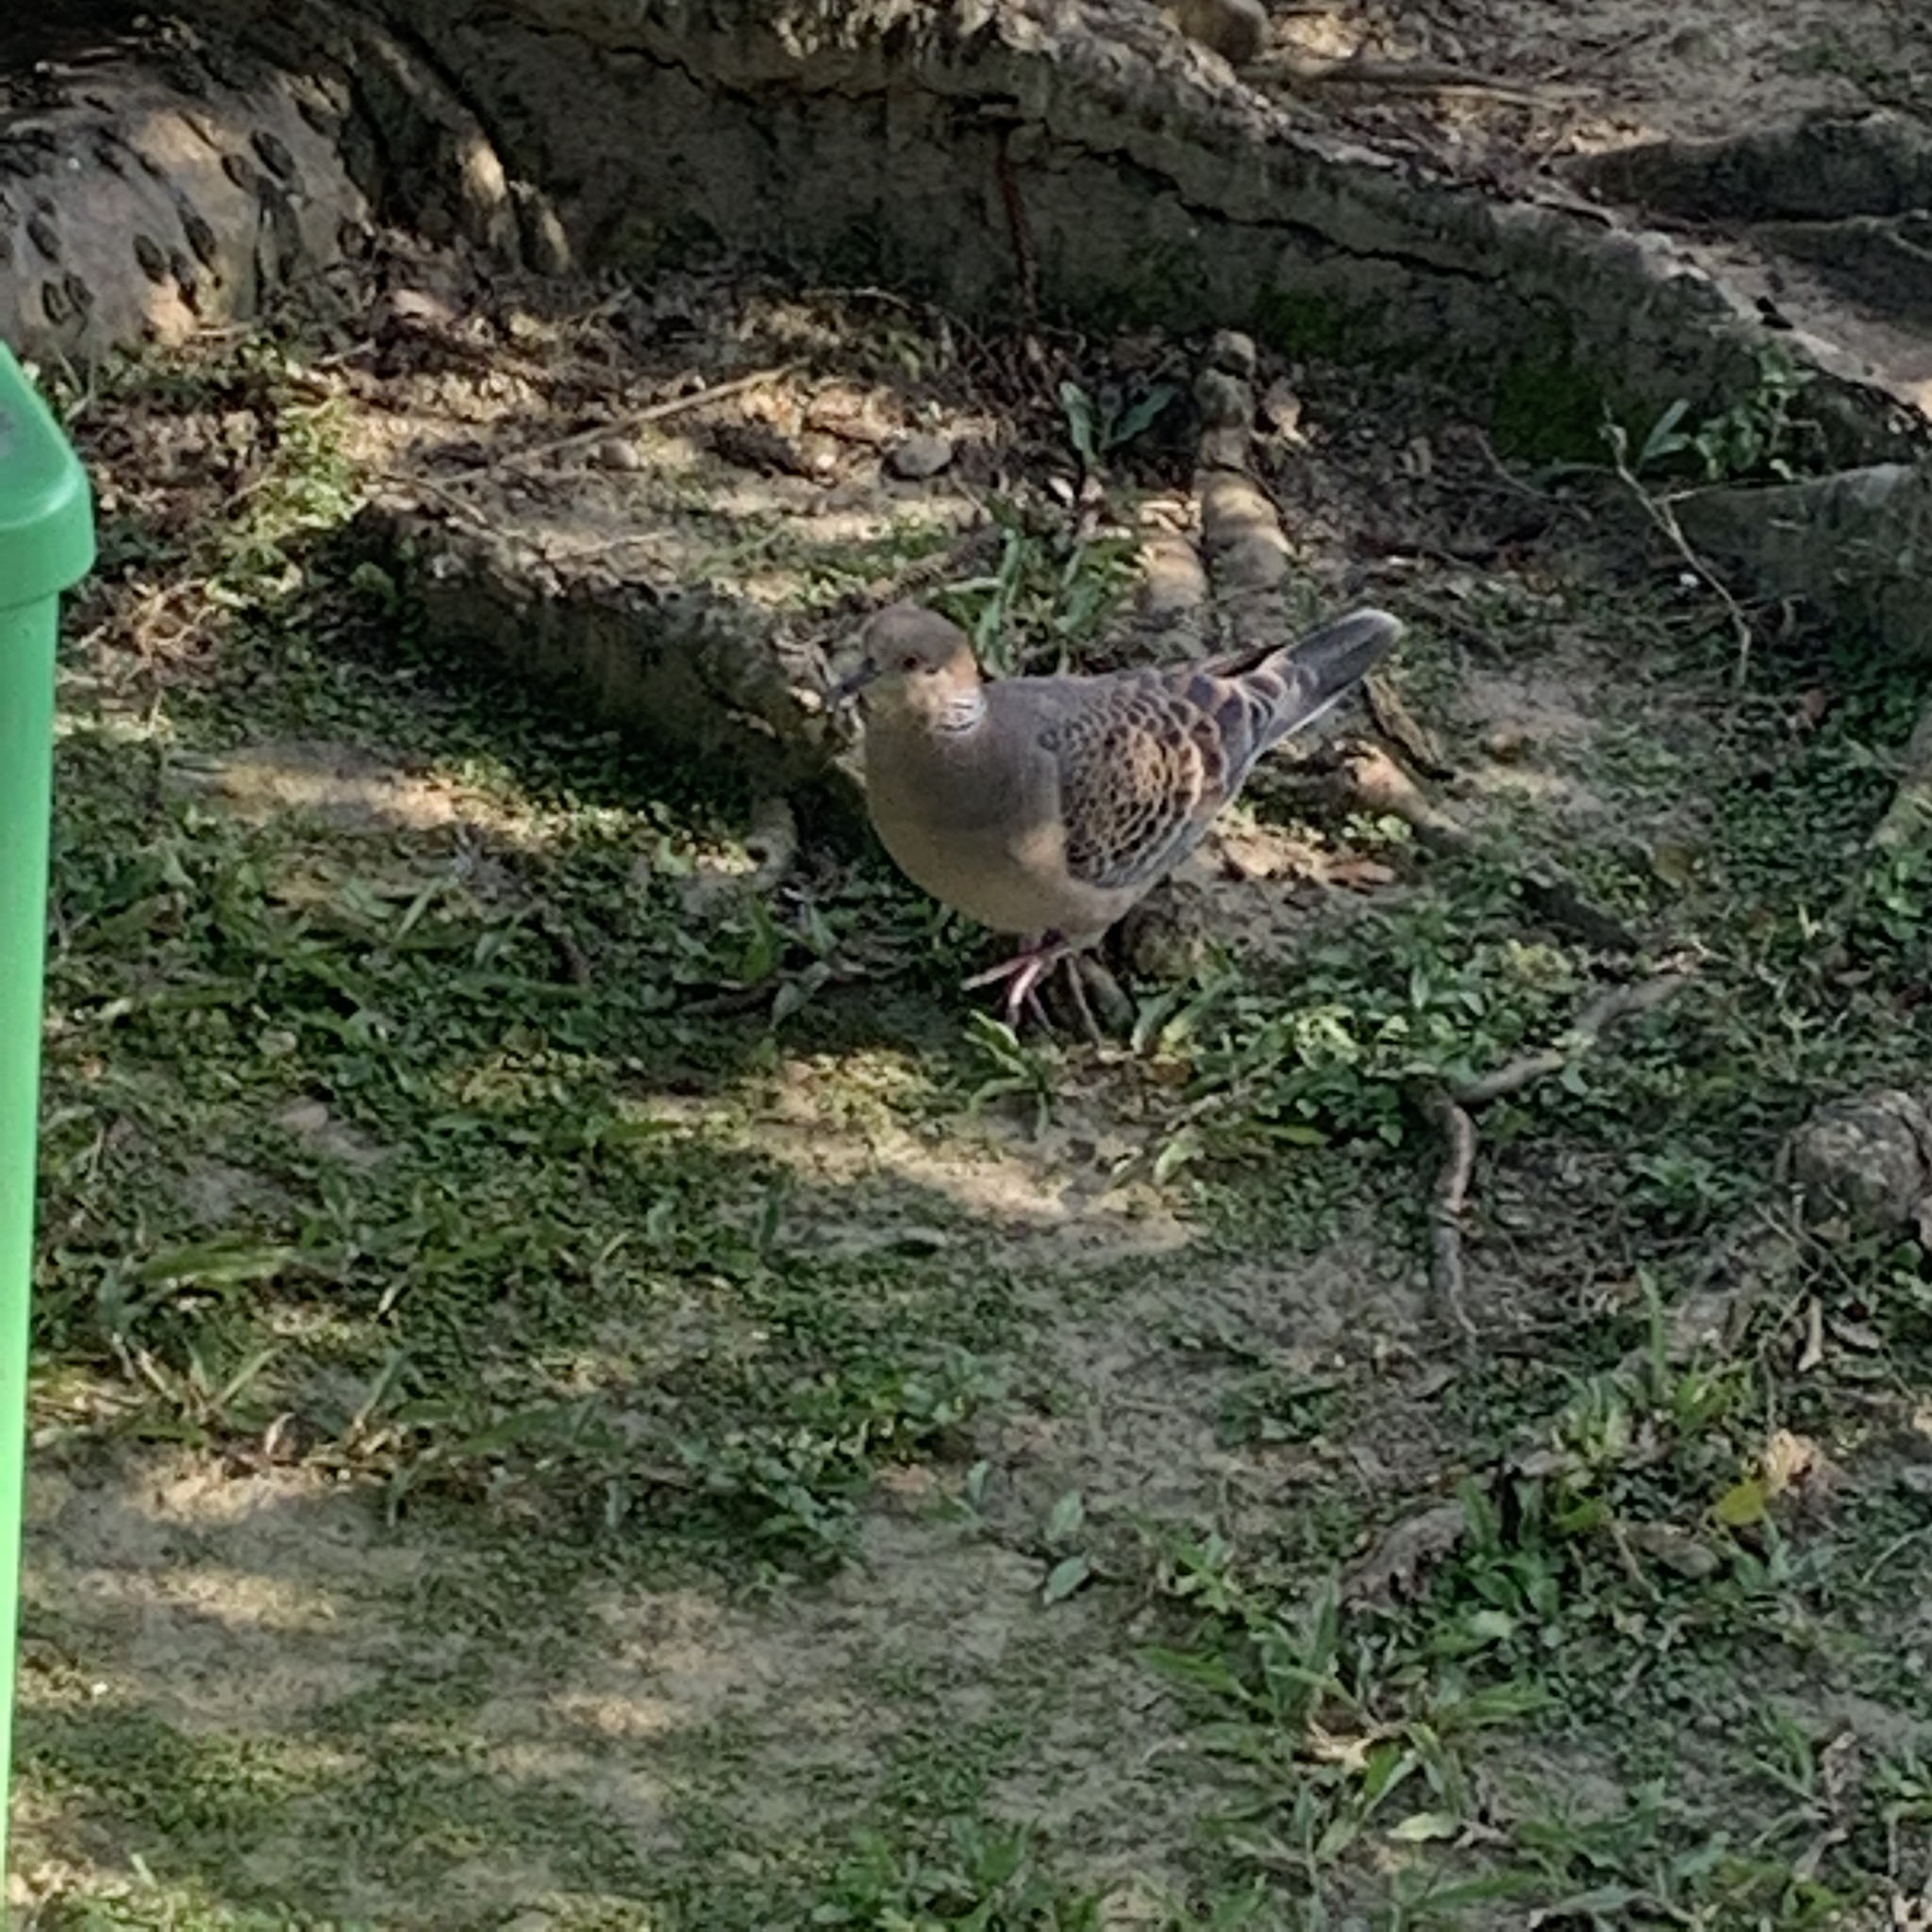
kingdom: Animalia
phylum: Chordata
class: Aves
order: Columbiformes
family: Columbidae
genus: Streptopelia
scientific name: Streptopelia orientalis
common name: Oriental turtle dove
